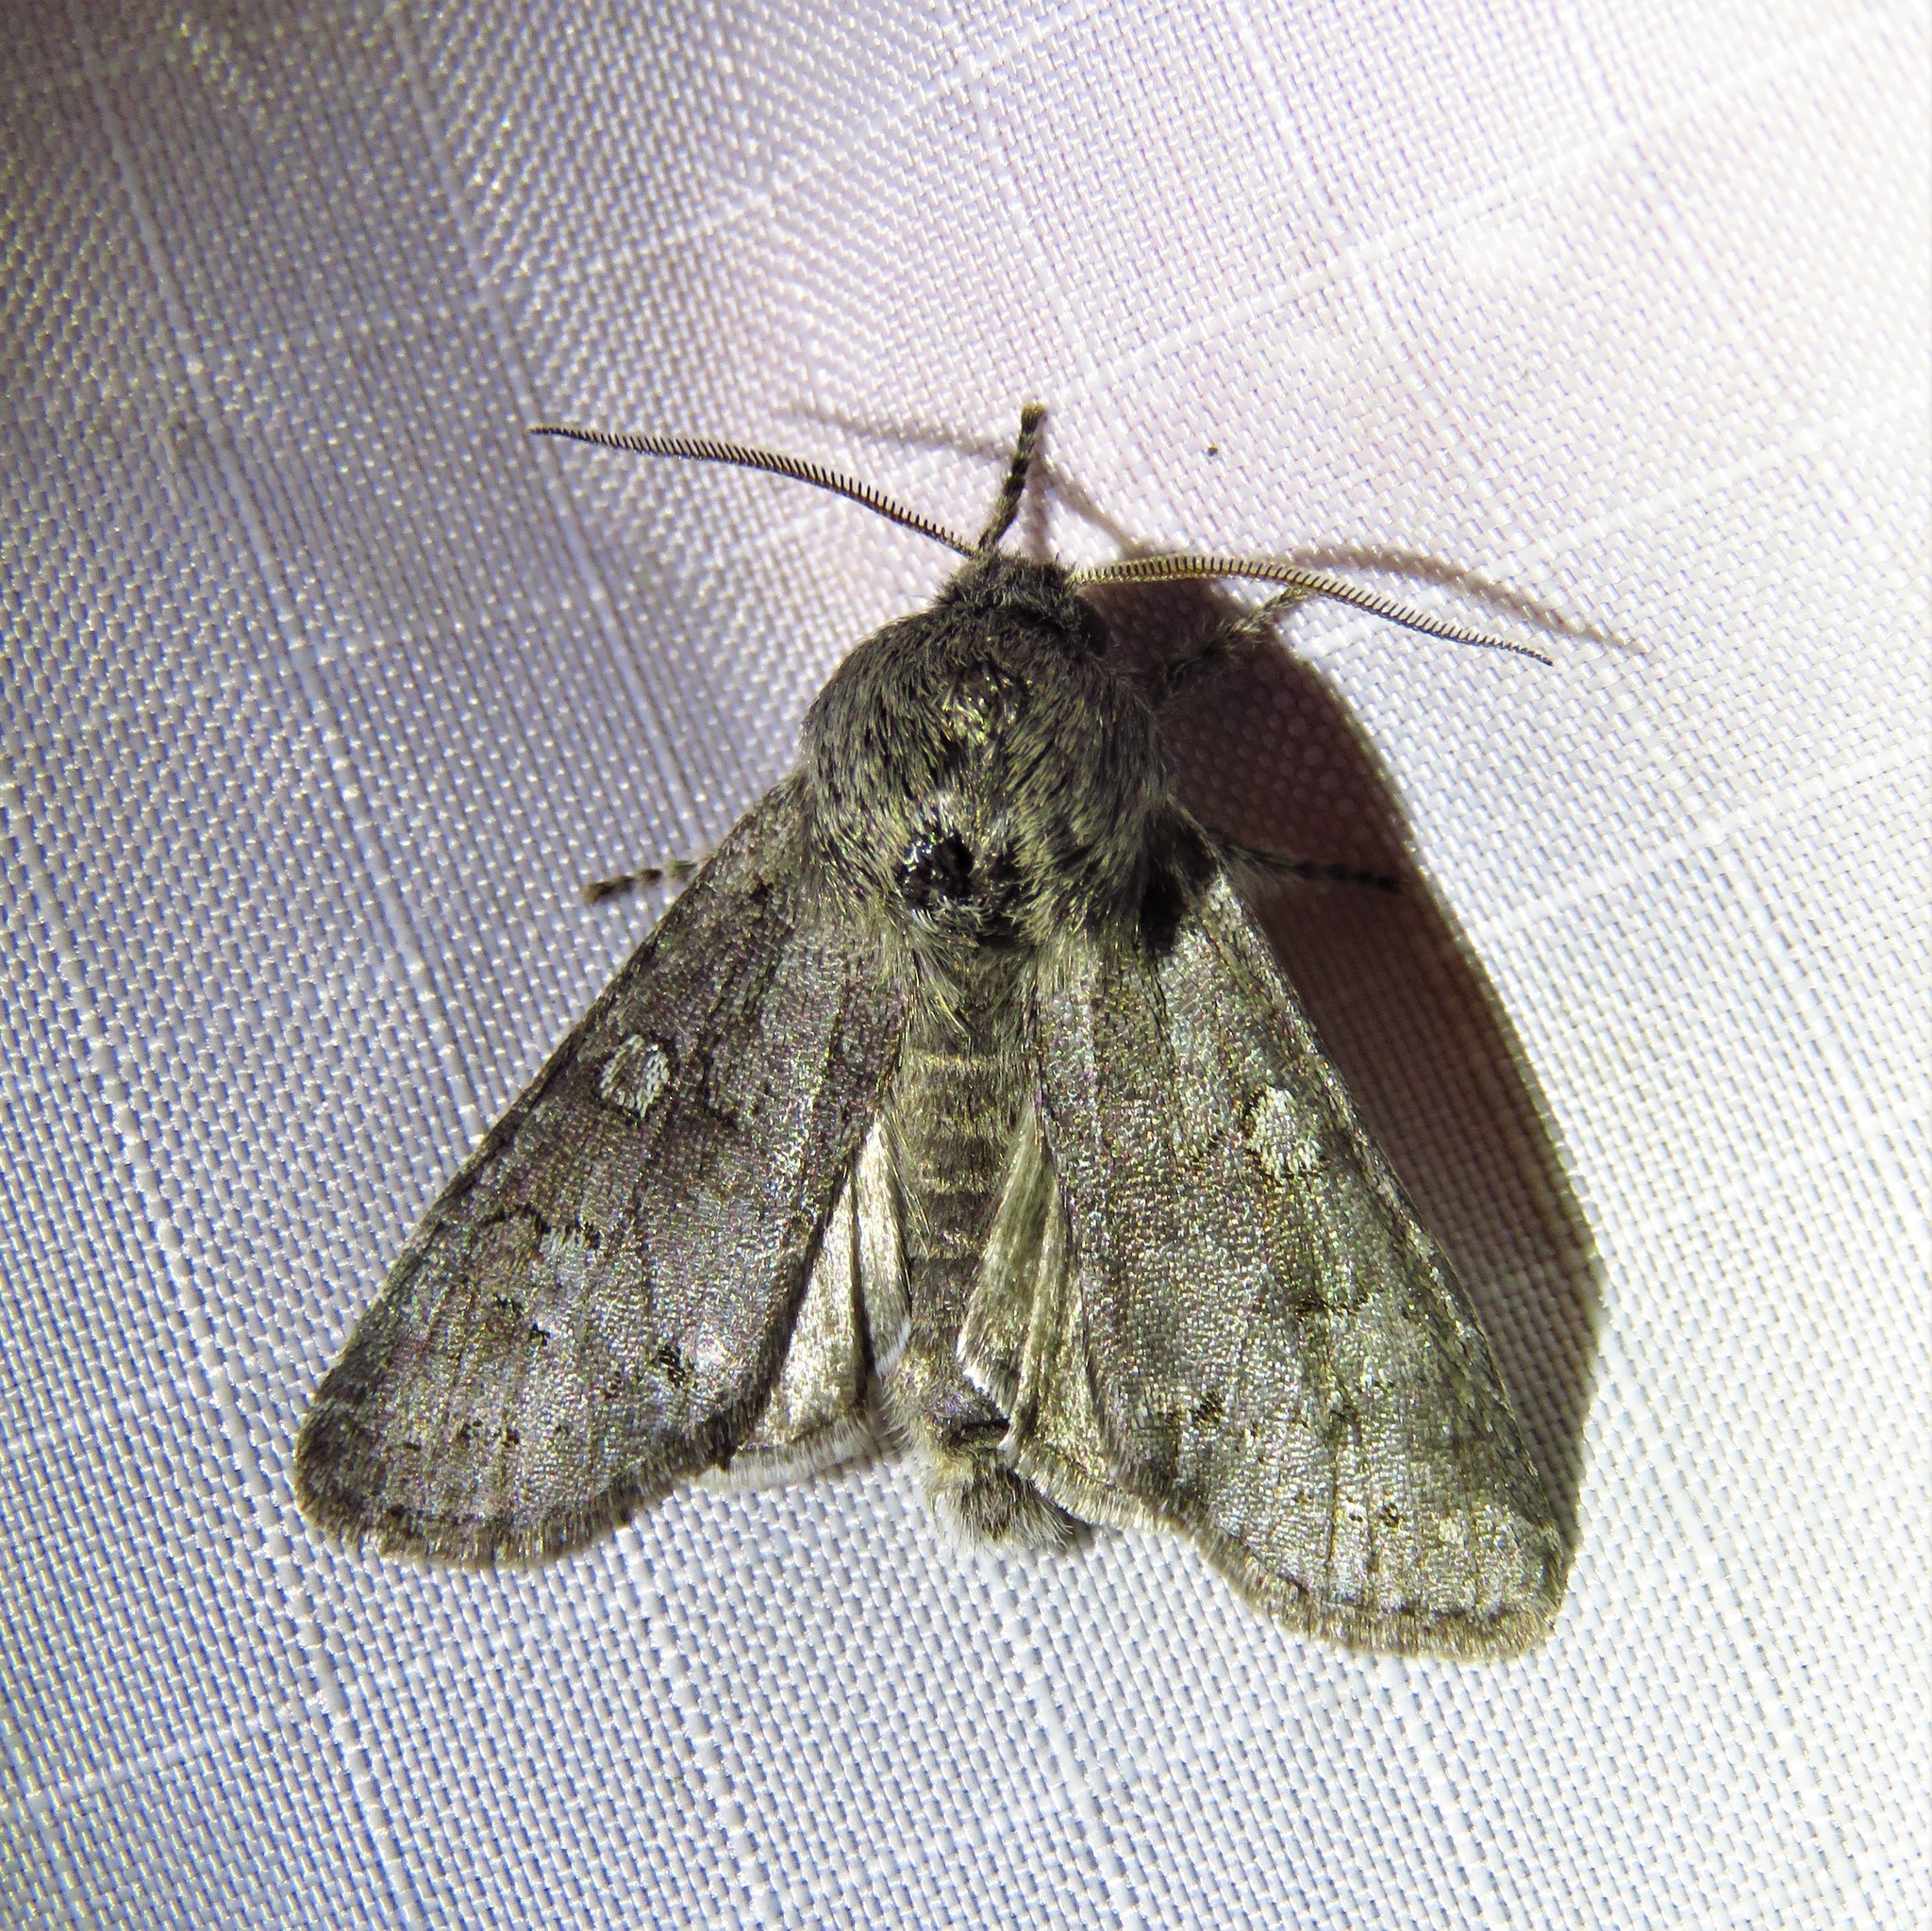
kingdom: Animalia
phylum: Arthropoda
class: Insecta
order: Lepidoptera
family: Noctuidae
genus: Psaphida
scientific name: Psaphida rolandi
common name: Roland's sallow
